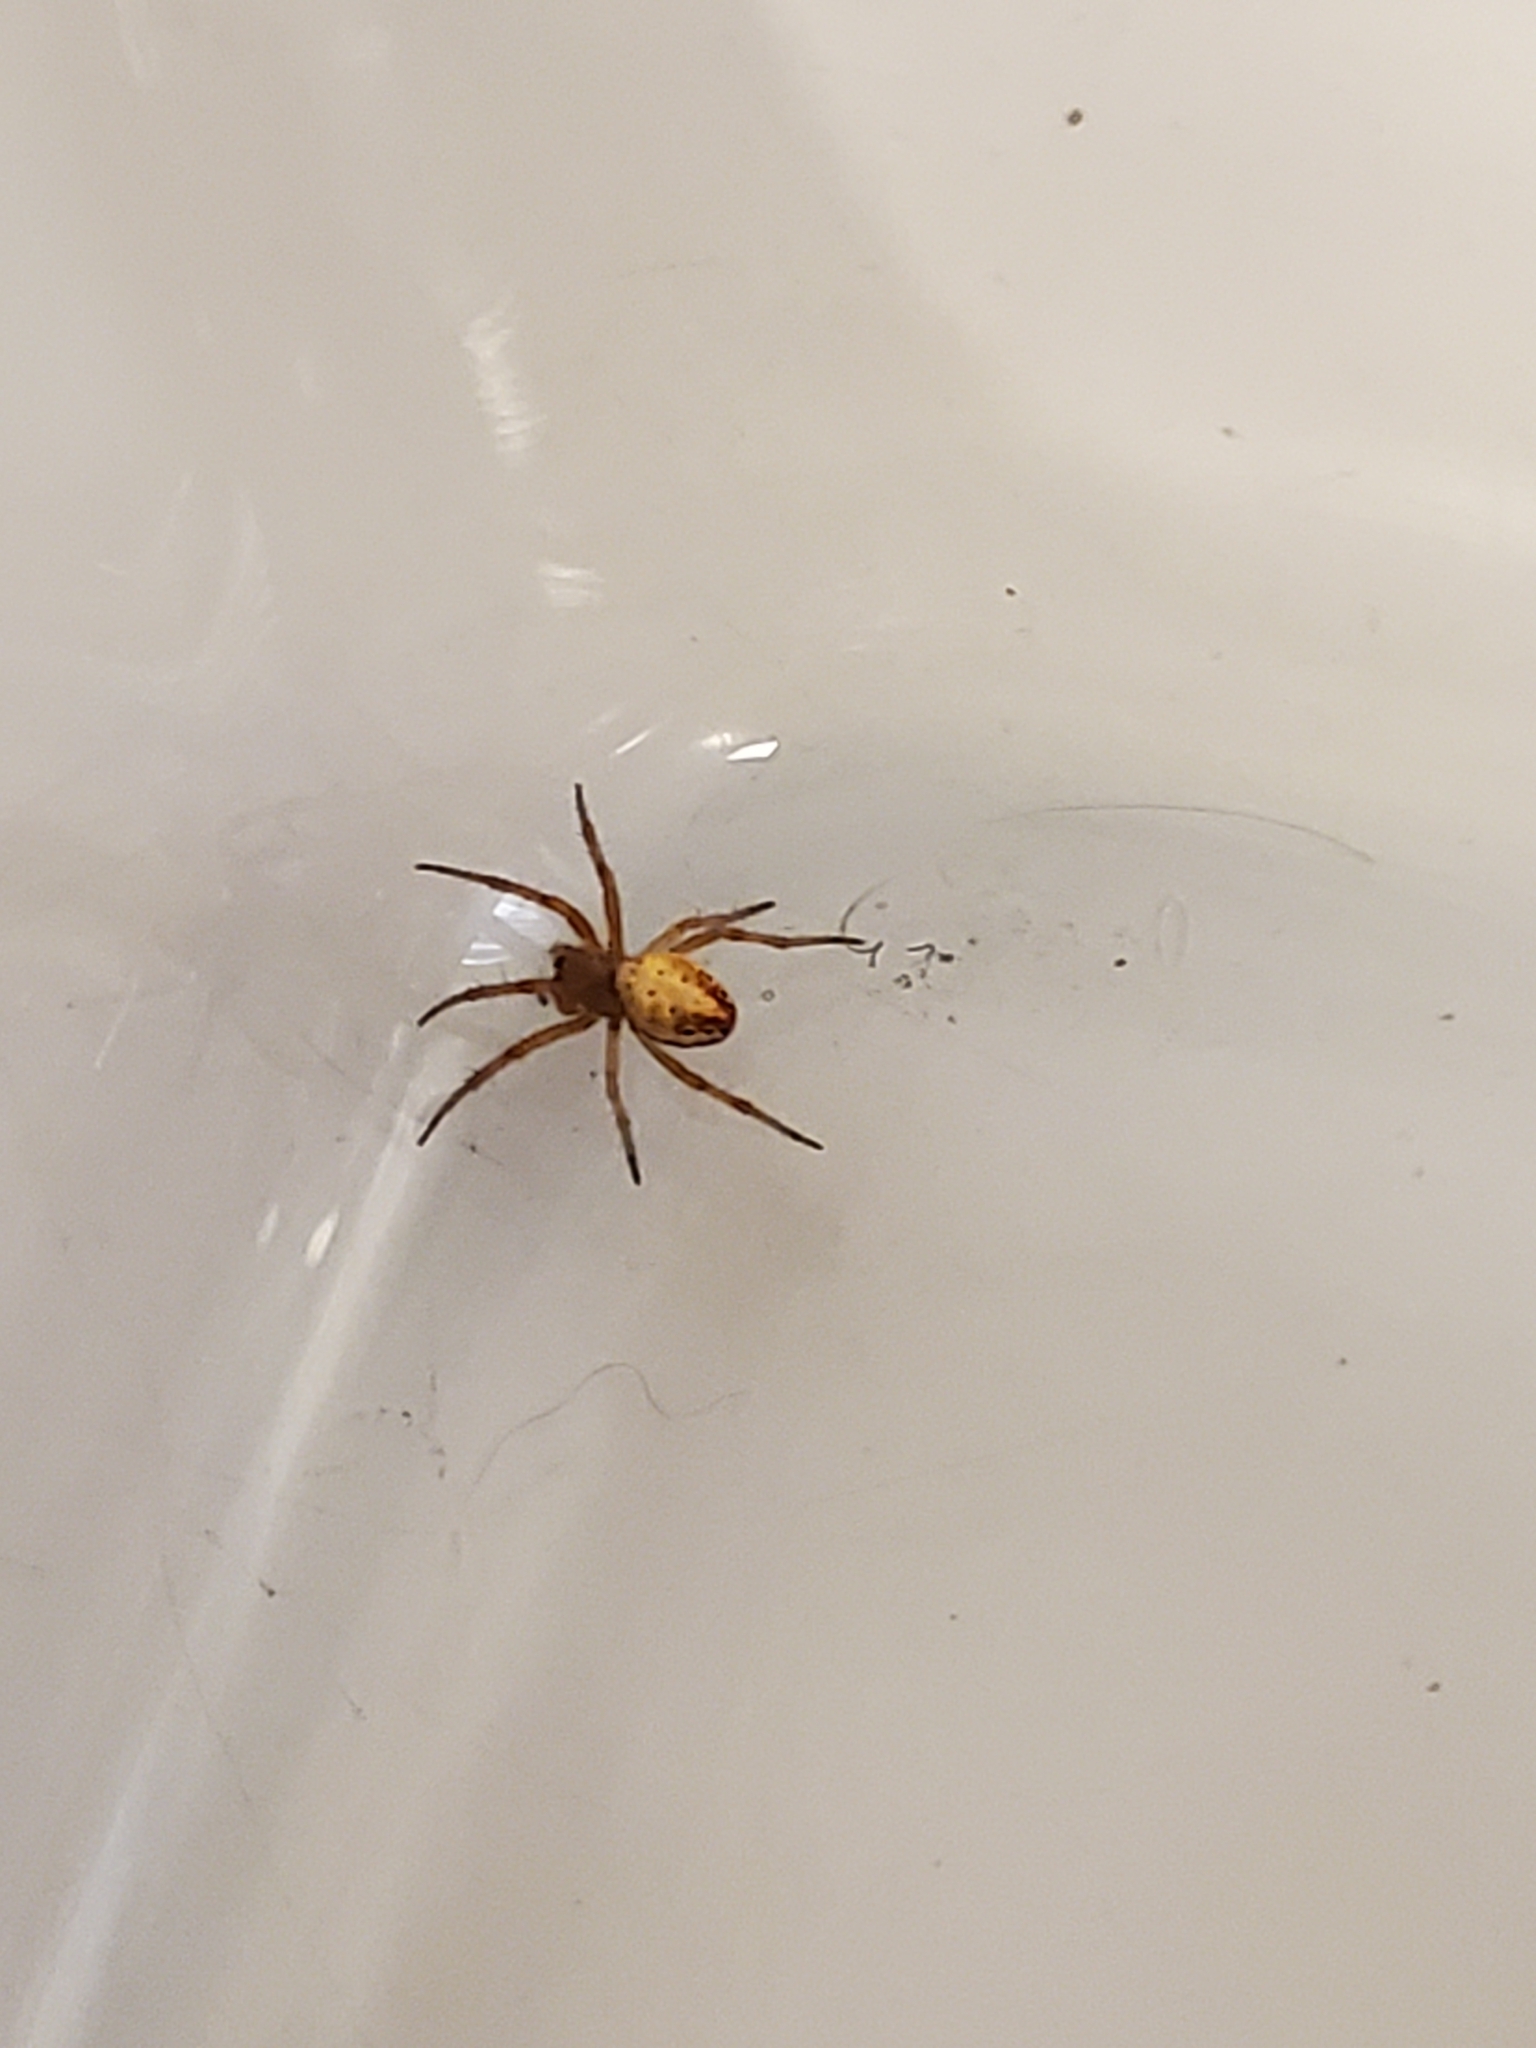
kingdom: Animalia
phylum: Arthropoda
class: Arachnida
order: Araneae
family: Araneidae
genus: Araniella
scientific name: Araniella displicata
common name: Sixspotted orb weaver
